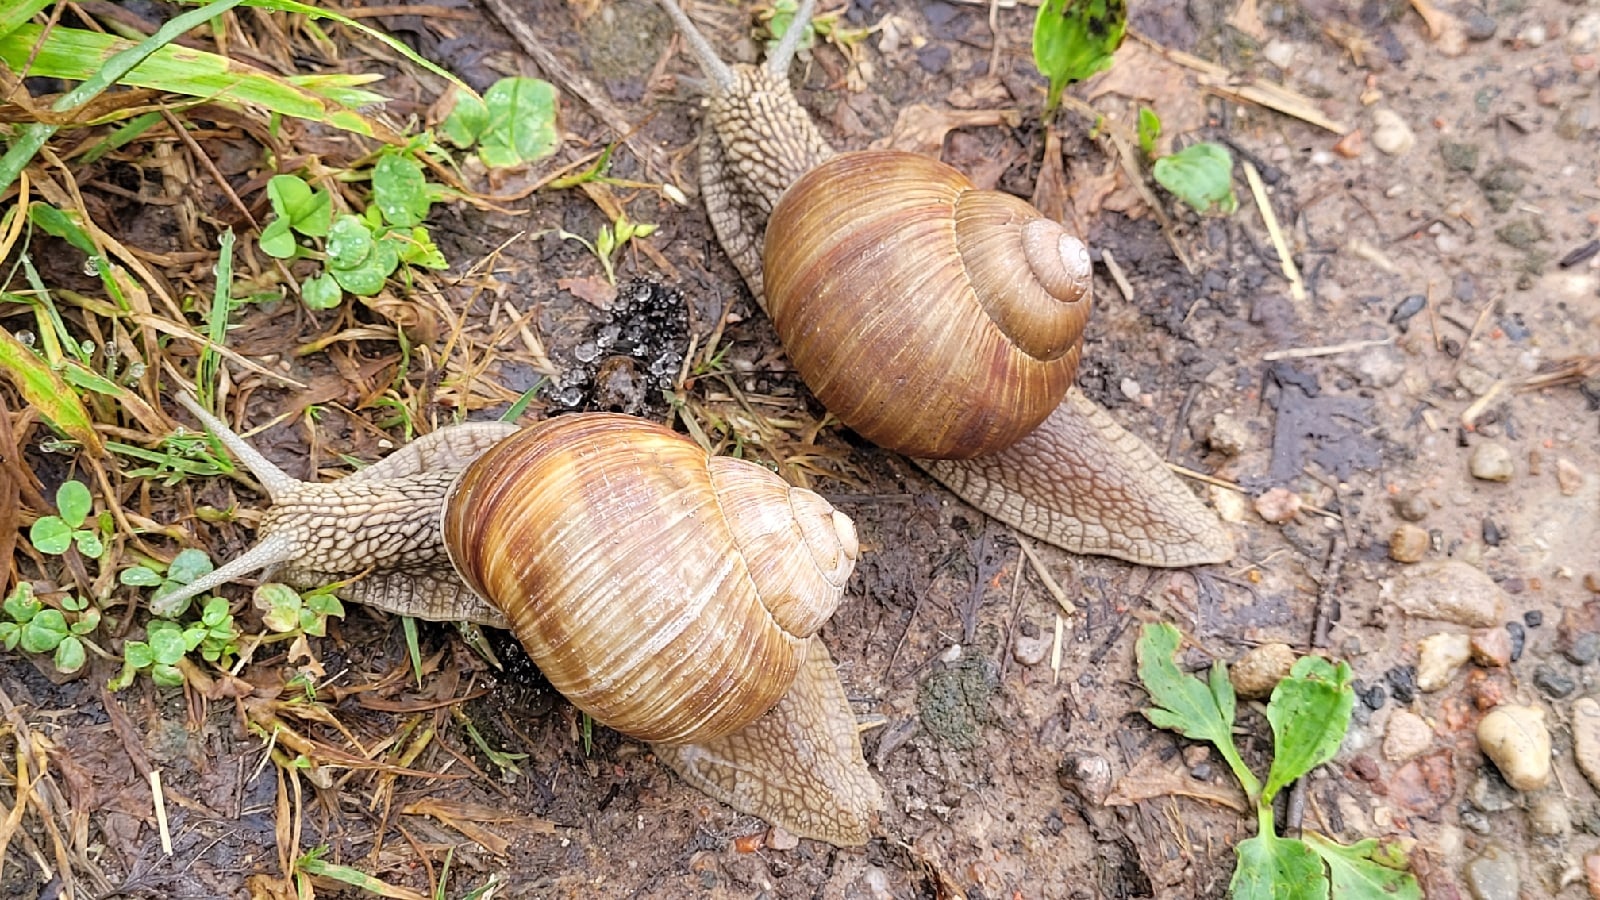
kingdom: Animalia
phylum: Mollusca
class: Gastropoda
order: Stylommatophora
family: Helicidae
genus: Helix
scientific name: Helix pomatia
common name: Roman snail
